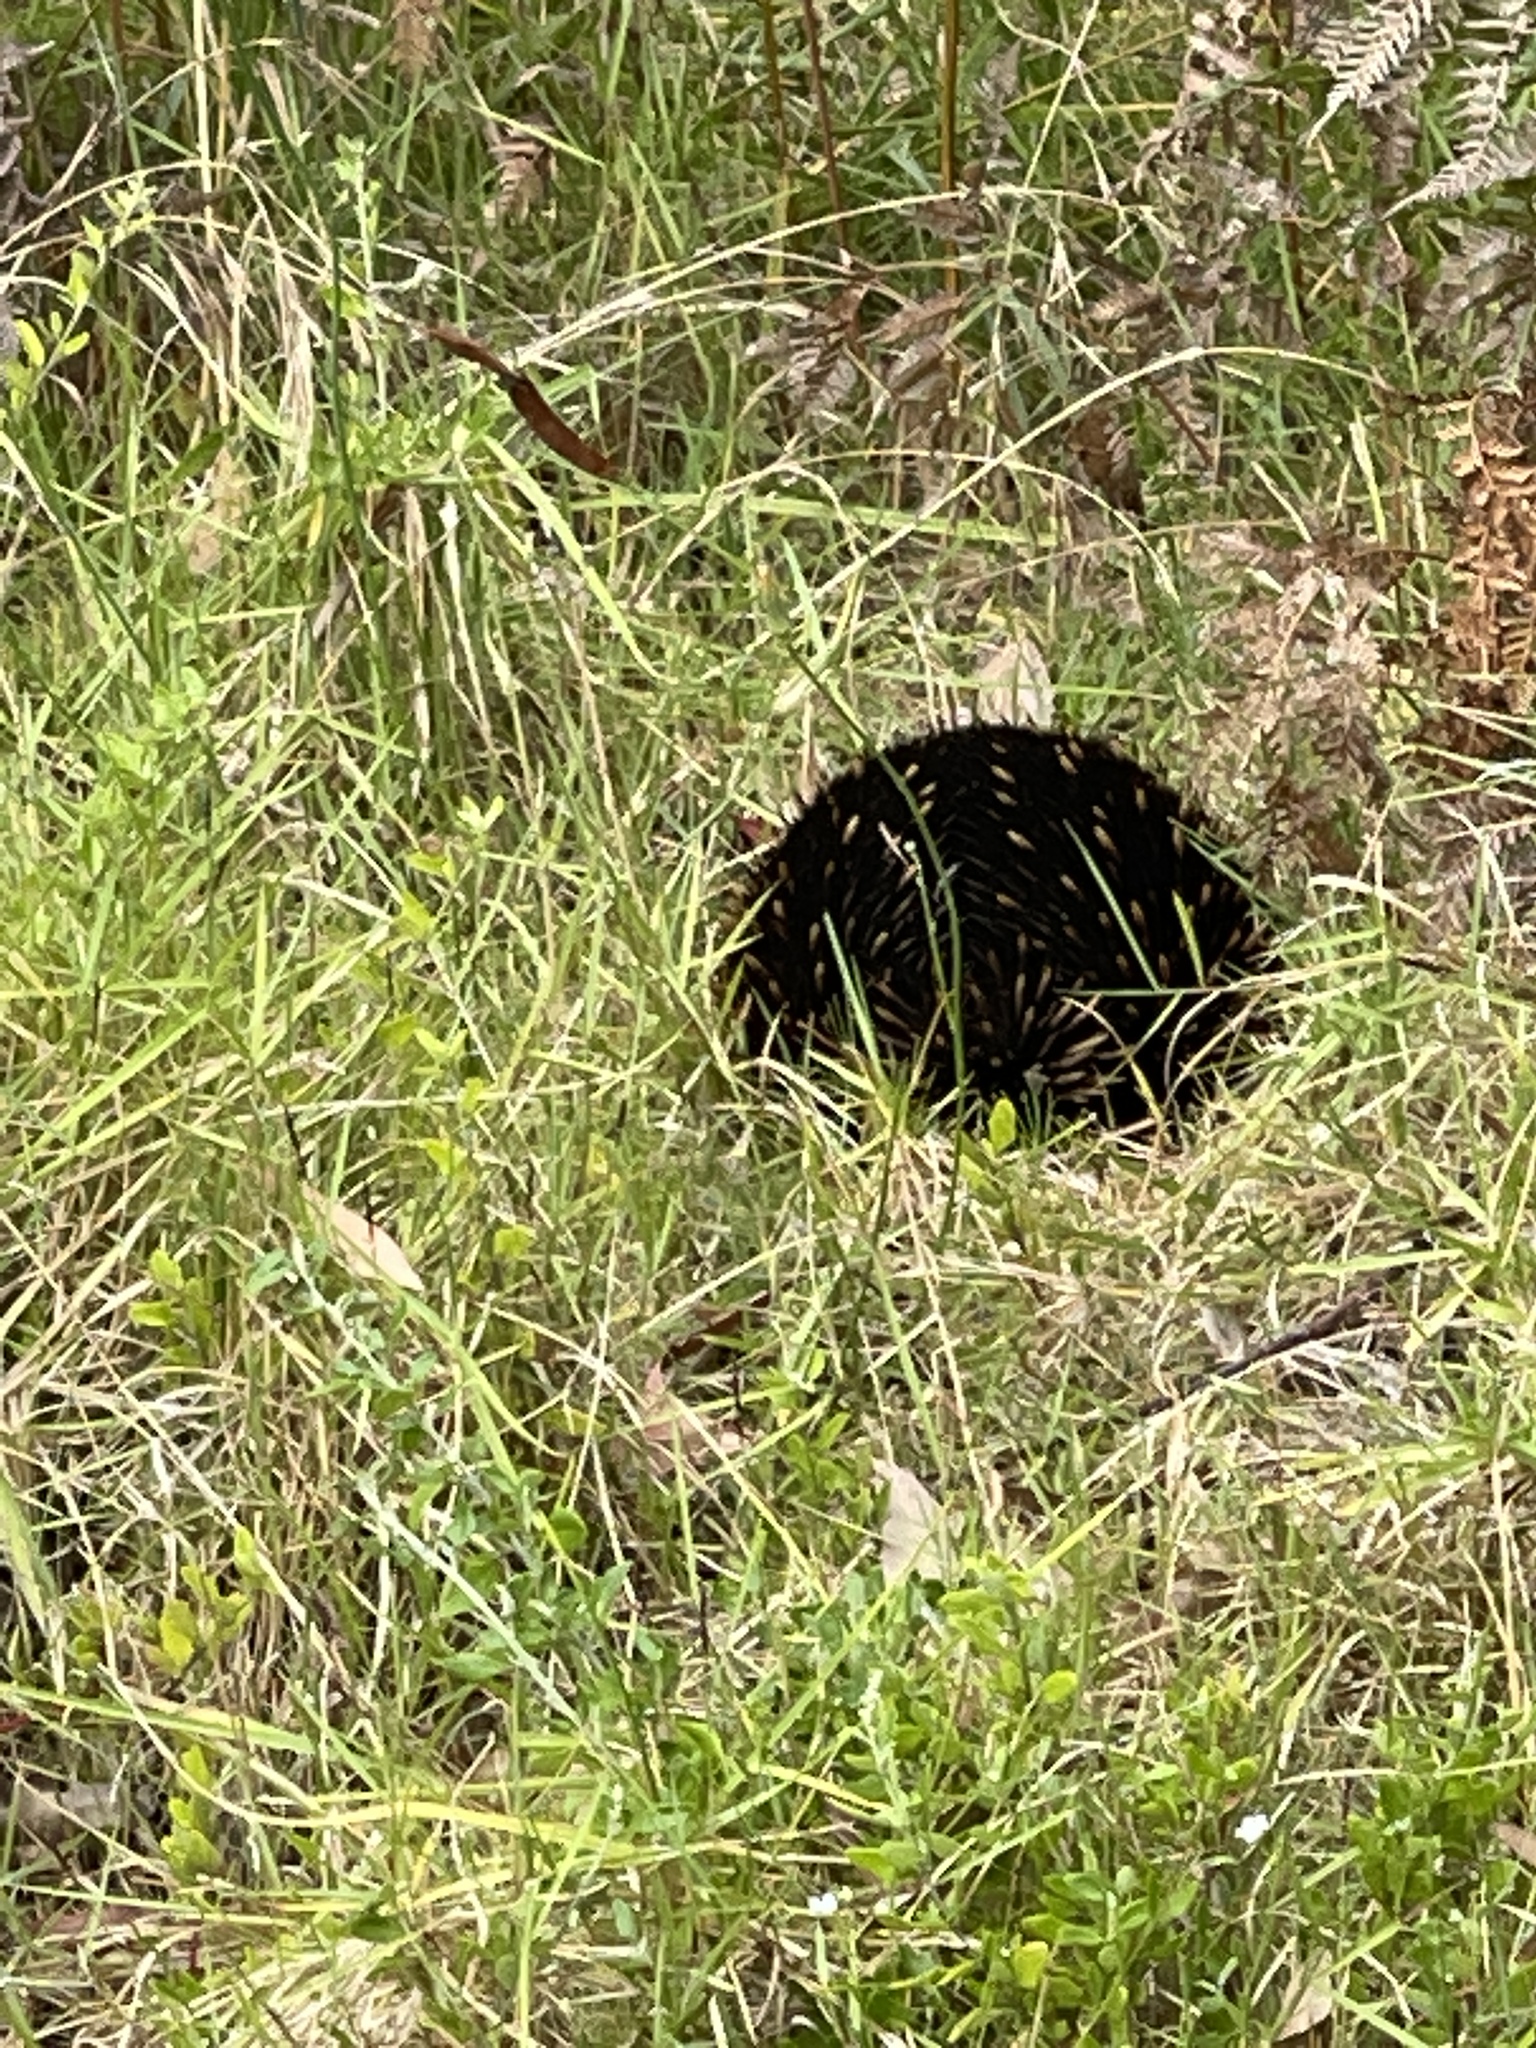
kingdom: Animalia
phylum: Chordata
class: Mammalia
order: Monotremata
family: Tachyglossidae
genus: Tachyglossus
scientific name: Tachyglossus aculeatus
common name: Short-beaked echidna
